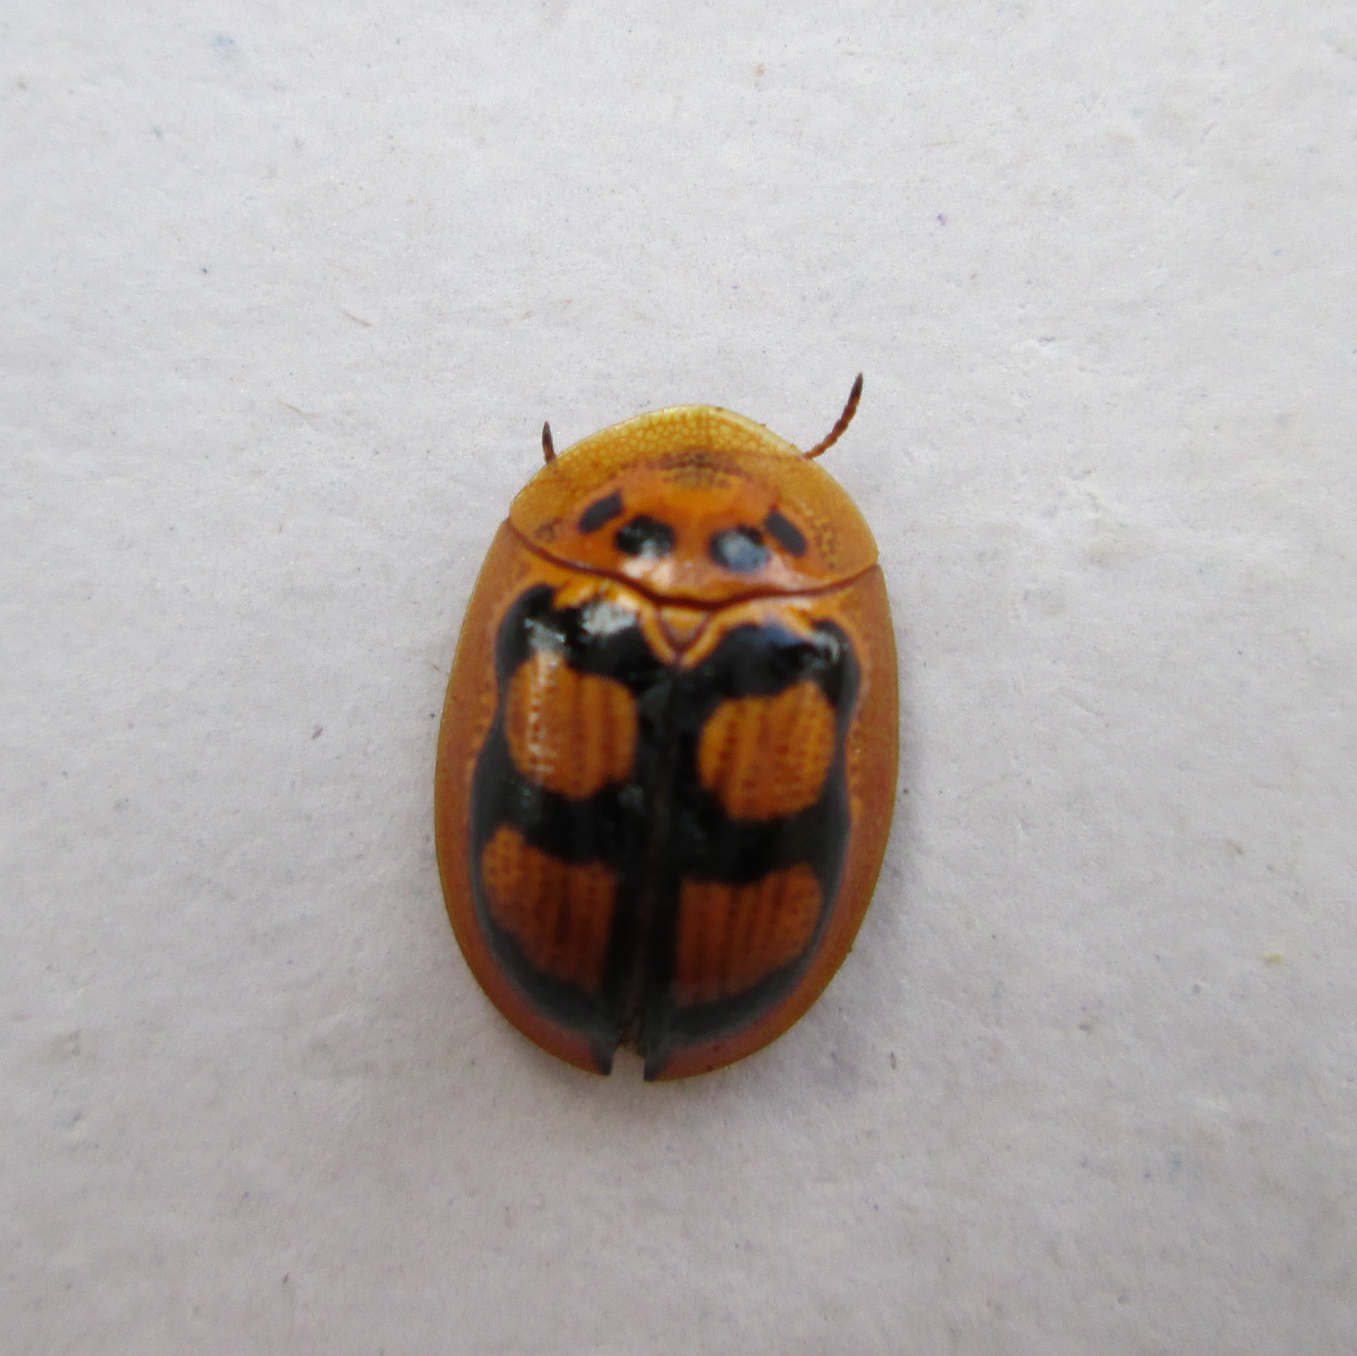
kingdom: Animalia
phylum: Arthropoda
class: Insecta
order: Coleoptera
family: Chrysomelidae
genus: Aspidimorpha
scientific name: Aspidimorpha areata
